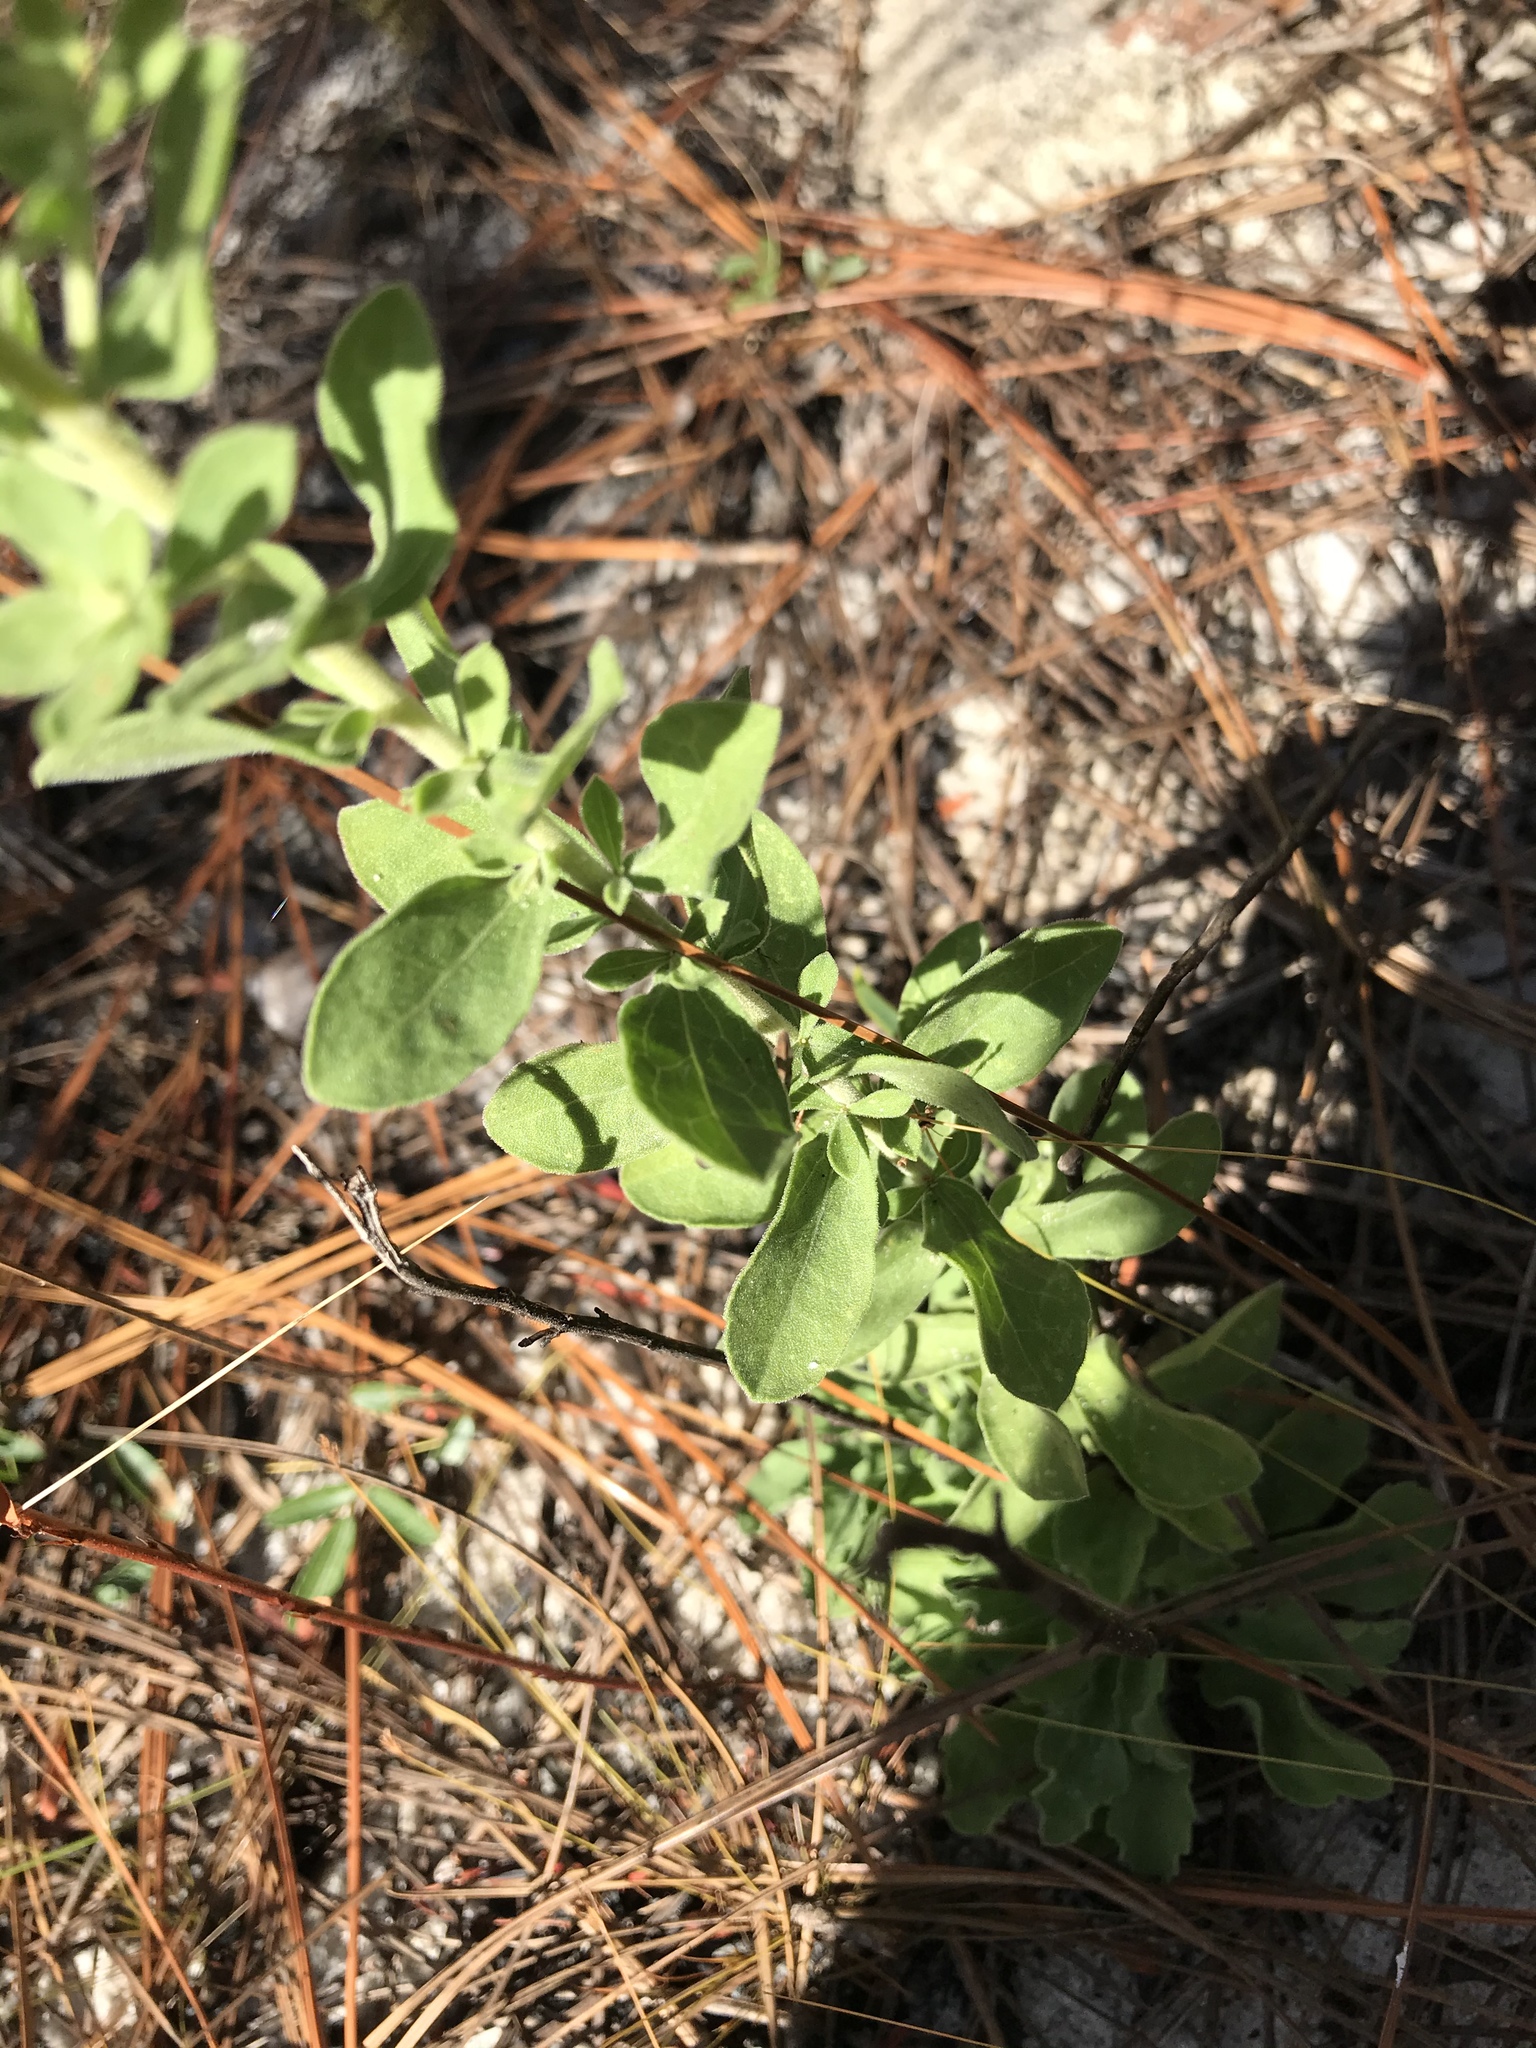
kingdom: Plantae
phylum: Tracheophyta
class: Magnoliopsida
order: Asterales
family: Asteraceae
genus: Sericocarpus
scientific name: Sericocarpus tortifolius
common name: Dixie aster
